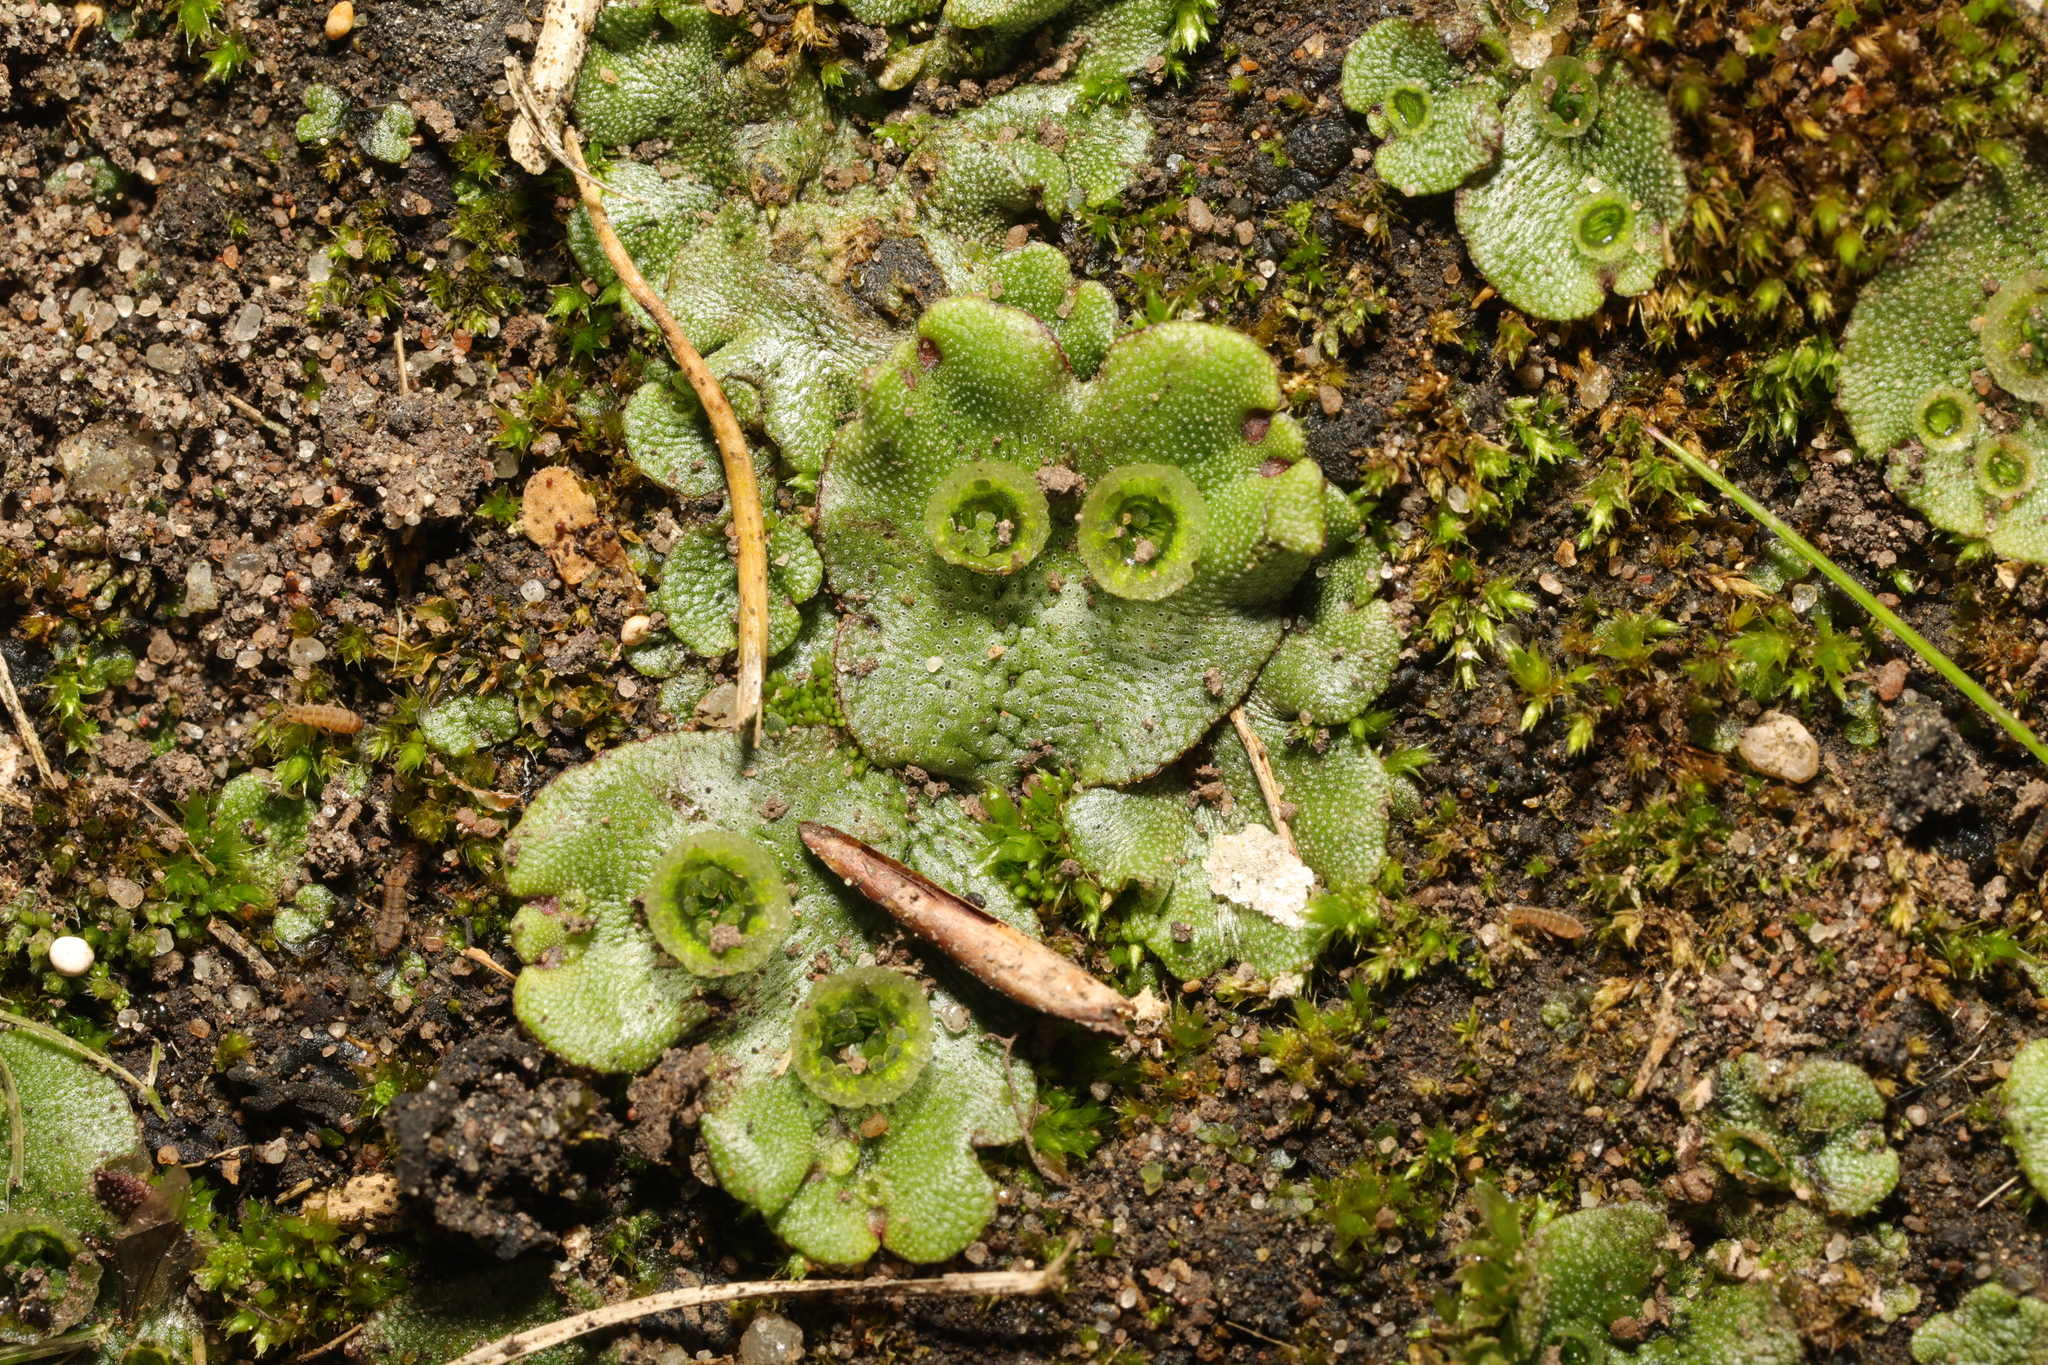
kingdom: Plantae
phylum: Marchantiophyta
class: Marchantiopsida
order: Marchantiales
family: Marchantiaceae
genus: Marchantia
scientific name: Marchantia polymorpha
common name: Common liverwort
